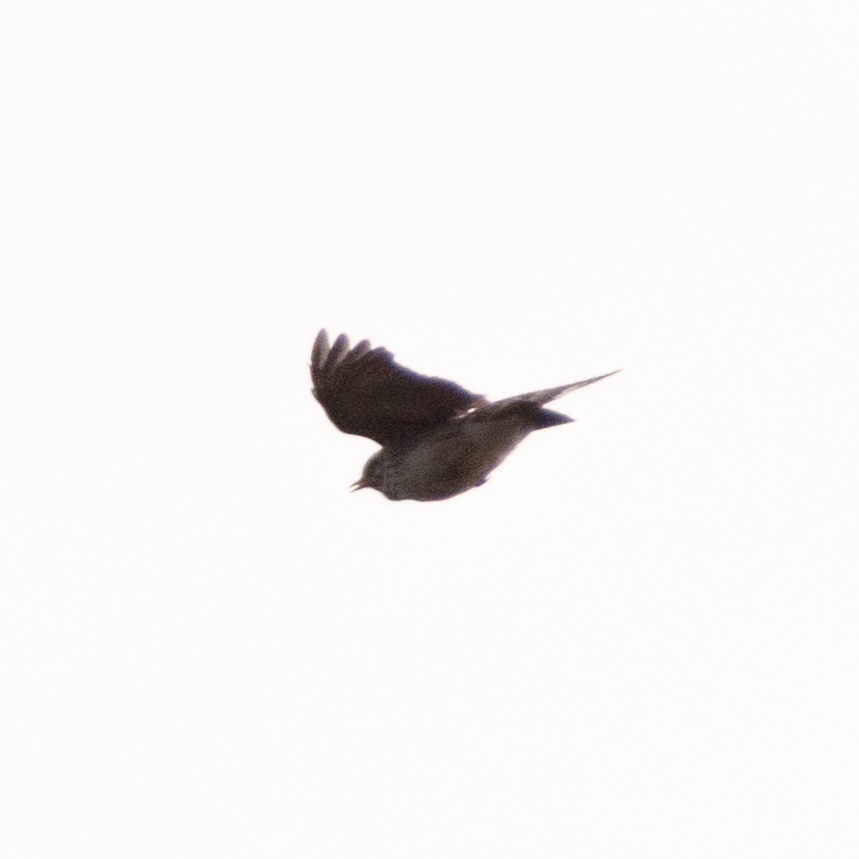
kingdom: Animalia
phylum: Chordata
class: Aves
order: Passeriformes
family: Alaudidae
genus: Alauda
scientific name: Alauda arvensis
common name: Eurasian skylark
